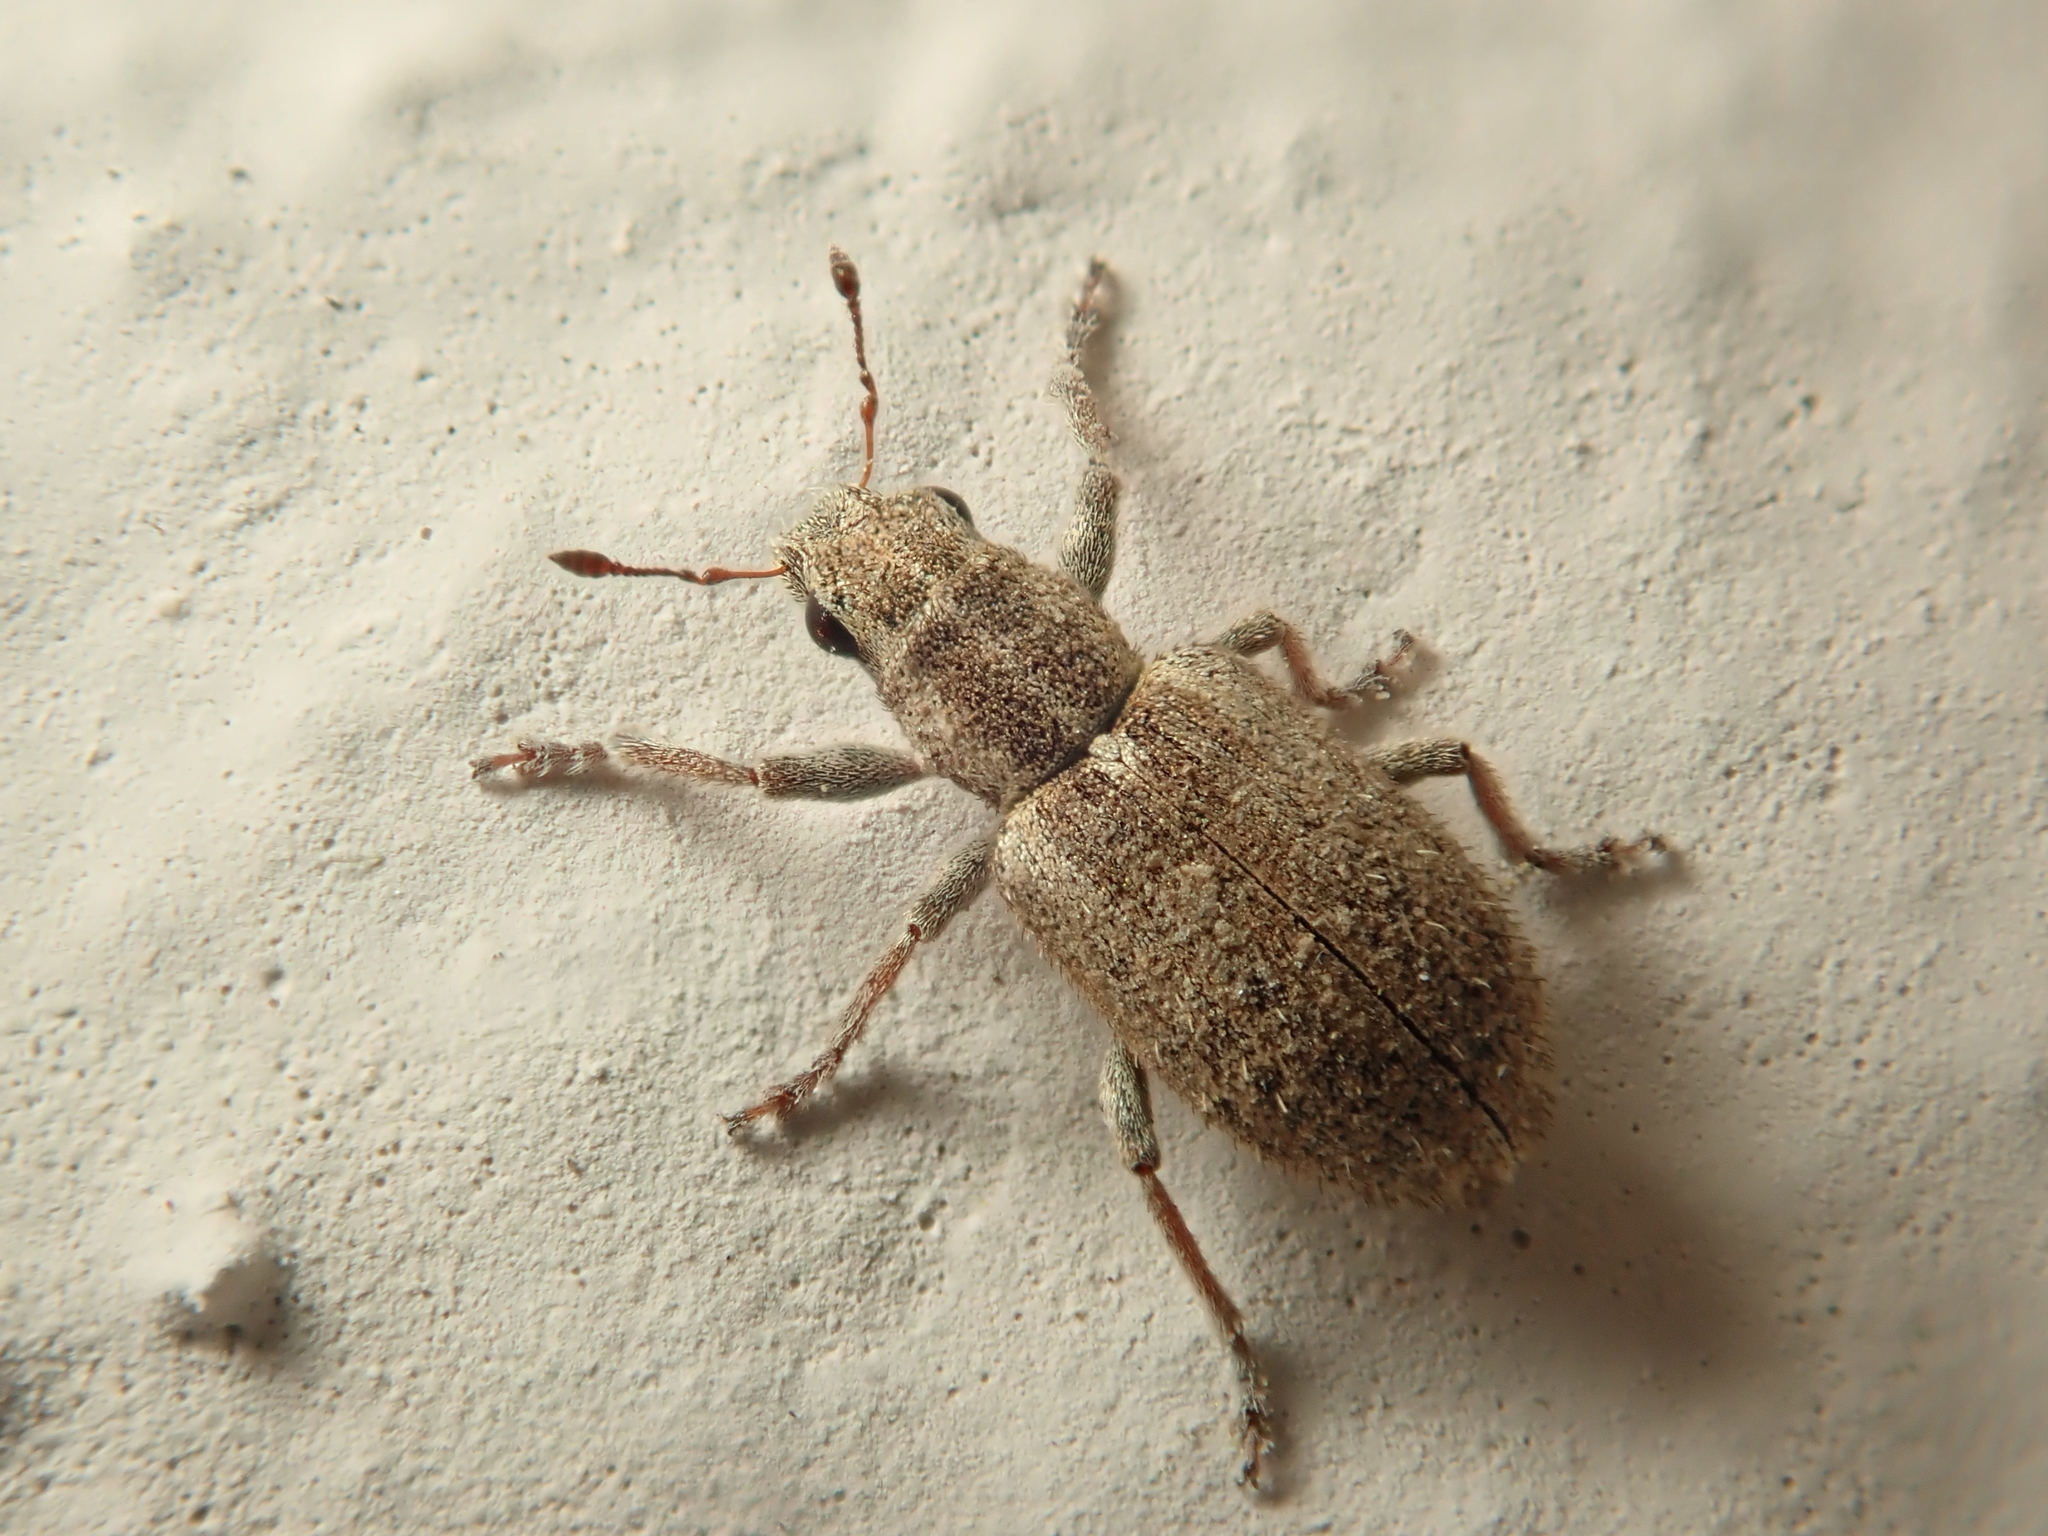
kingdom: Animalia
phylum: Arthropoda
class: Insecta
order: Coleoptera
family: Curculionidae
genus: Sitona
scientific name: Sitona macularius
